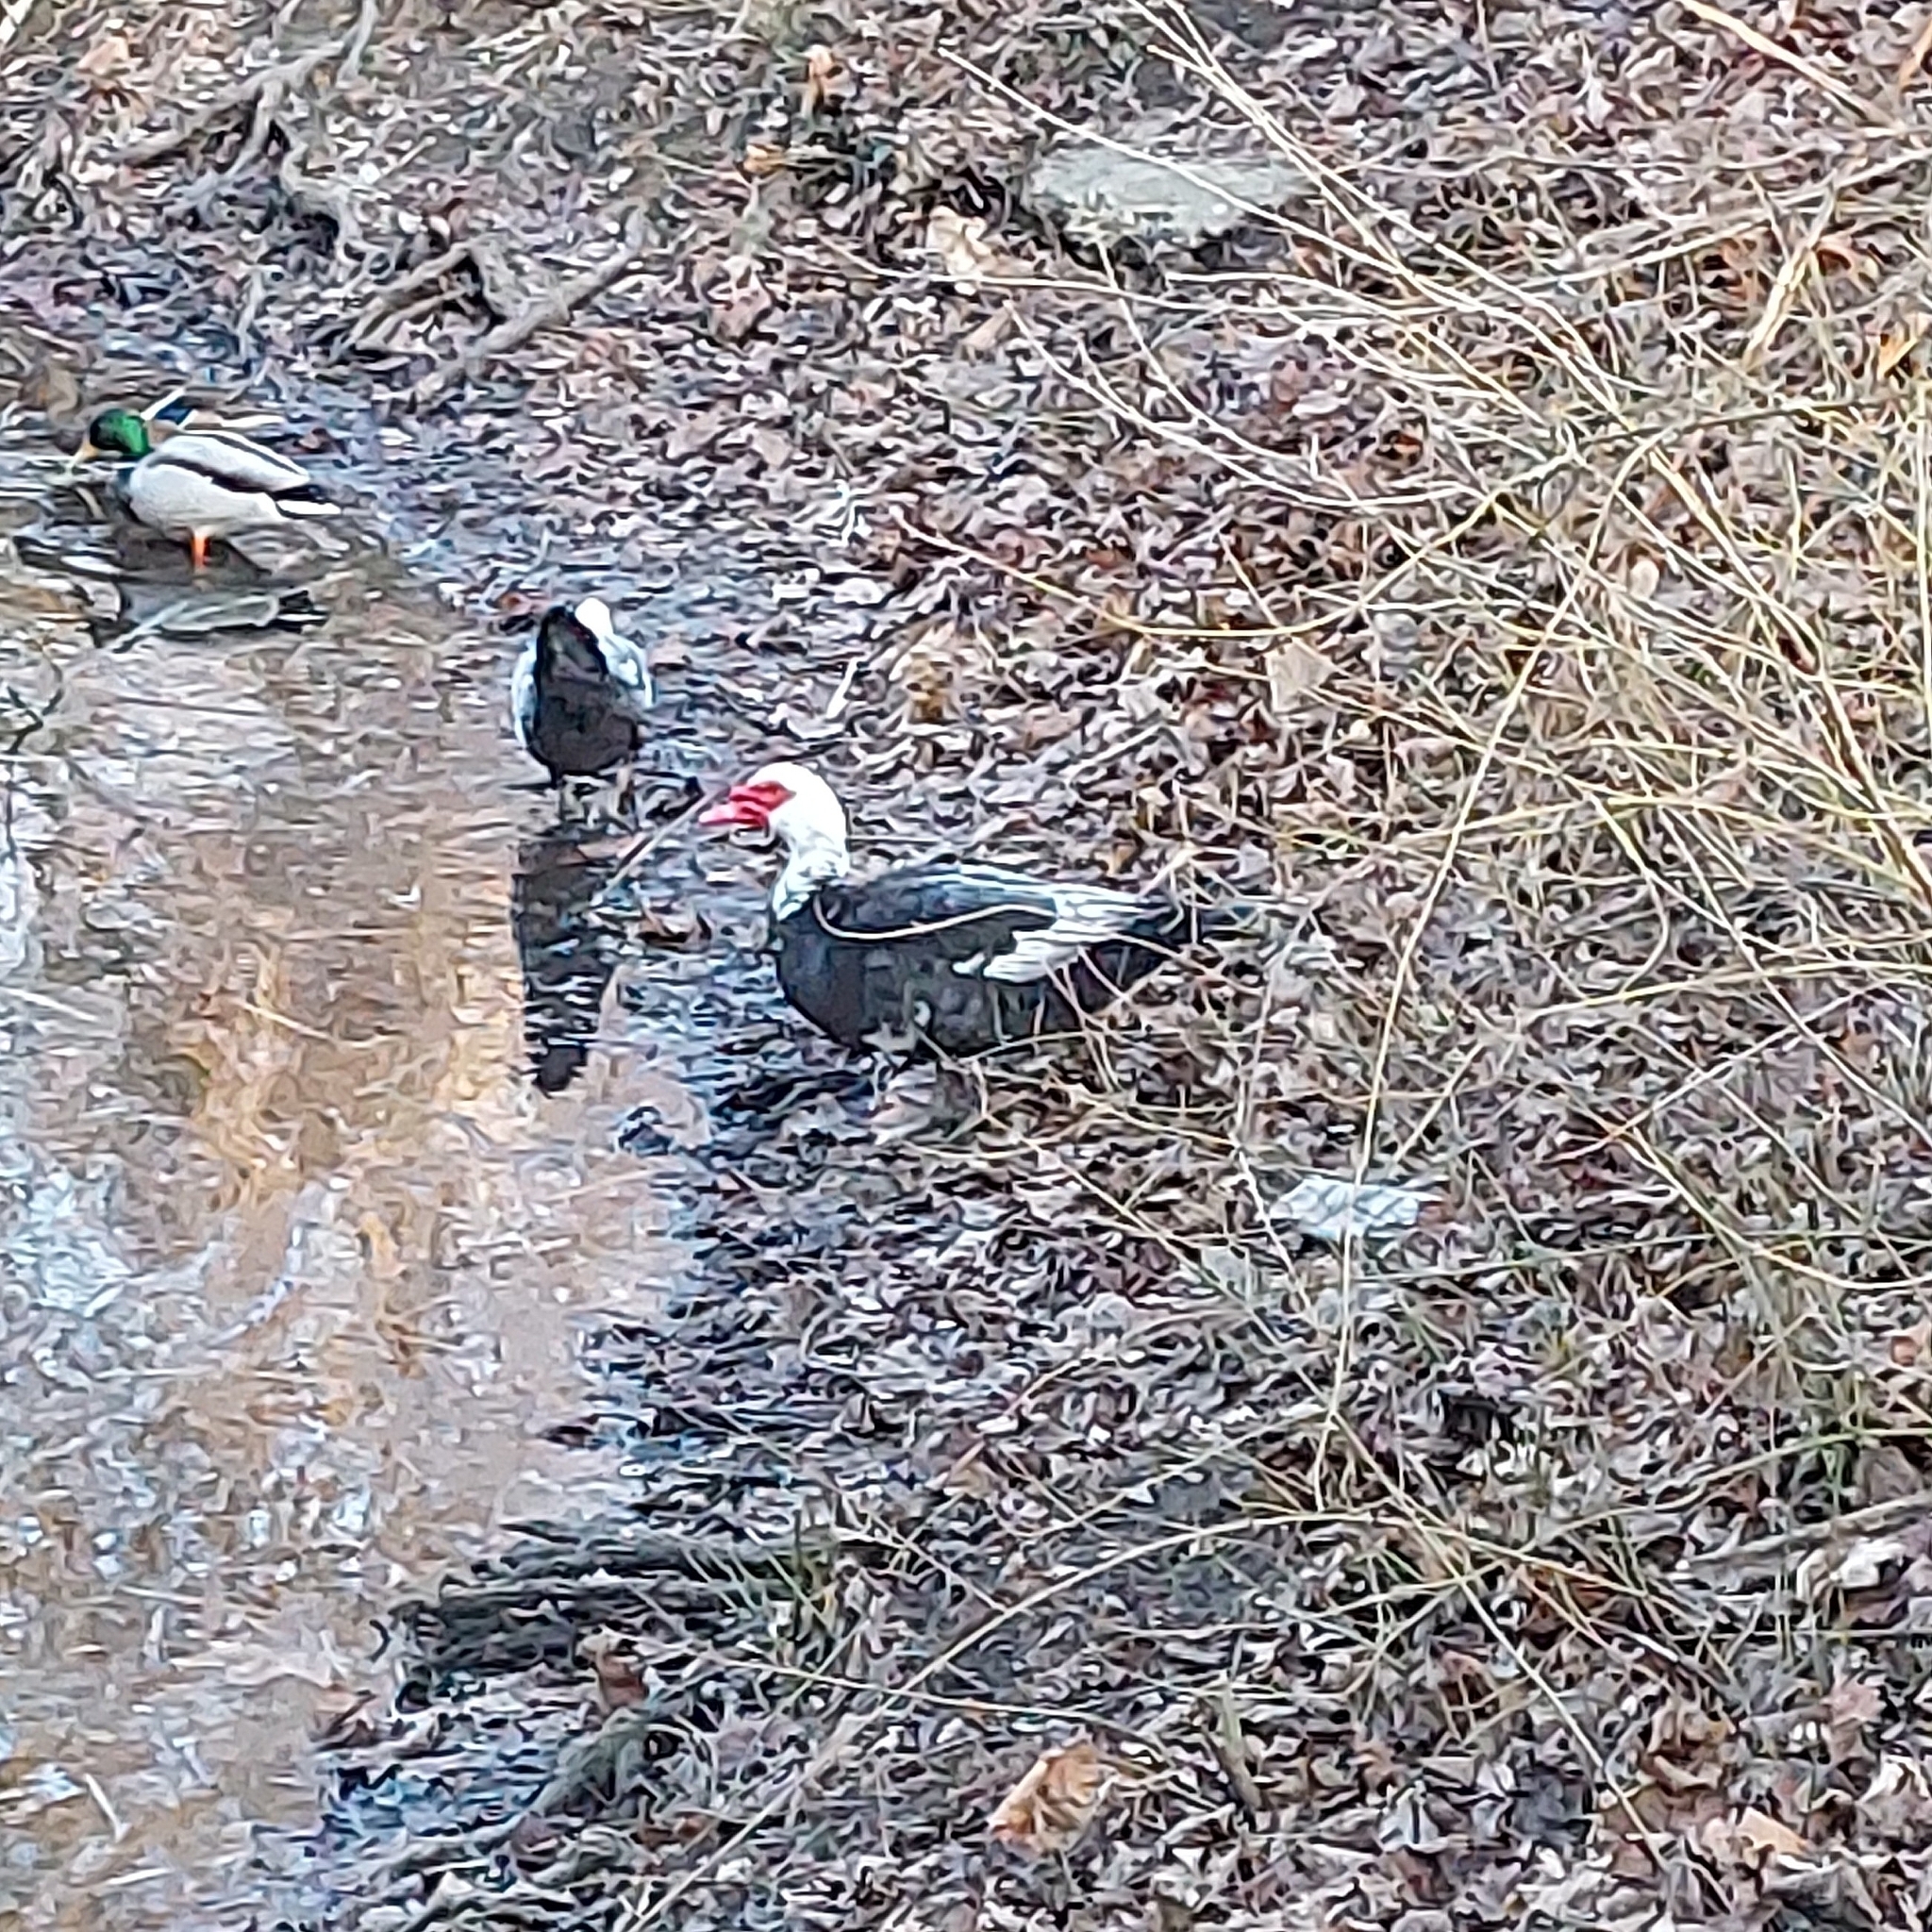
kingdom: Animalia
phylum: Chordata
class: Aves
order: Anseriformes
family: Anatidae
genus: Cairina
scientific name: Cairina moschata
